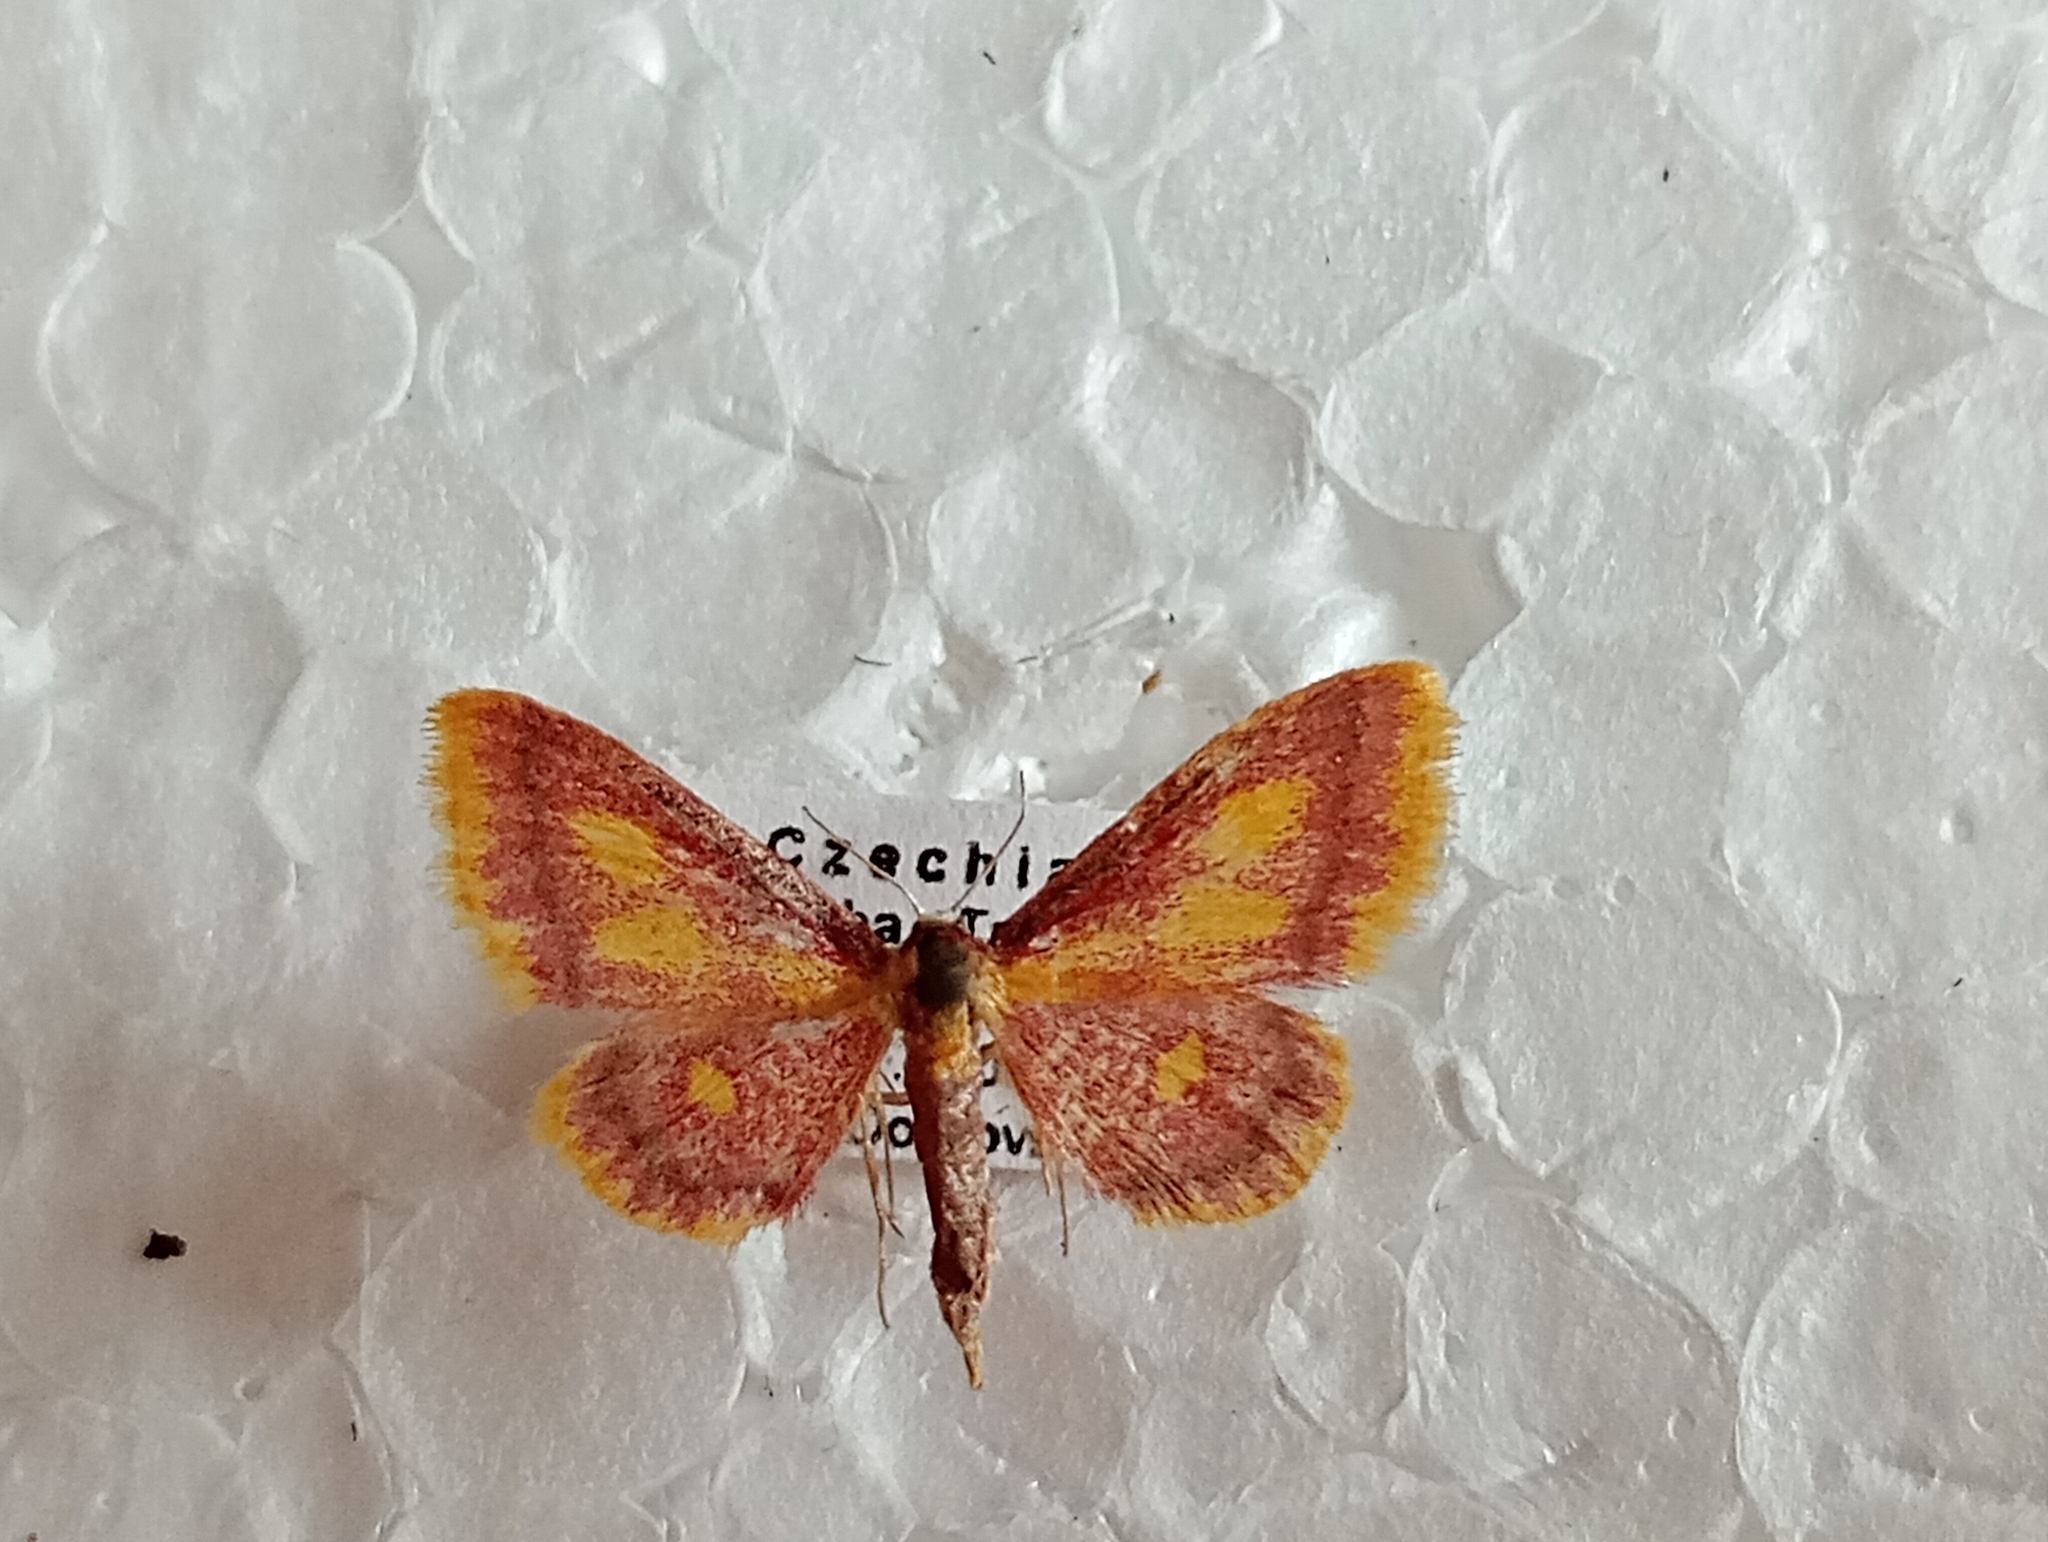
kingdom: Animalia
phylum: Arthropoda
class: Insecta
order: Lepidoptera
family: Geometridae
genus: Idaea
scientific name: Idaea muricata
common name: Purple-bordered gold
